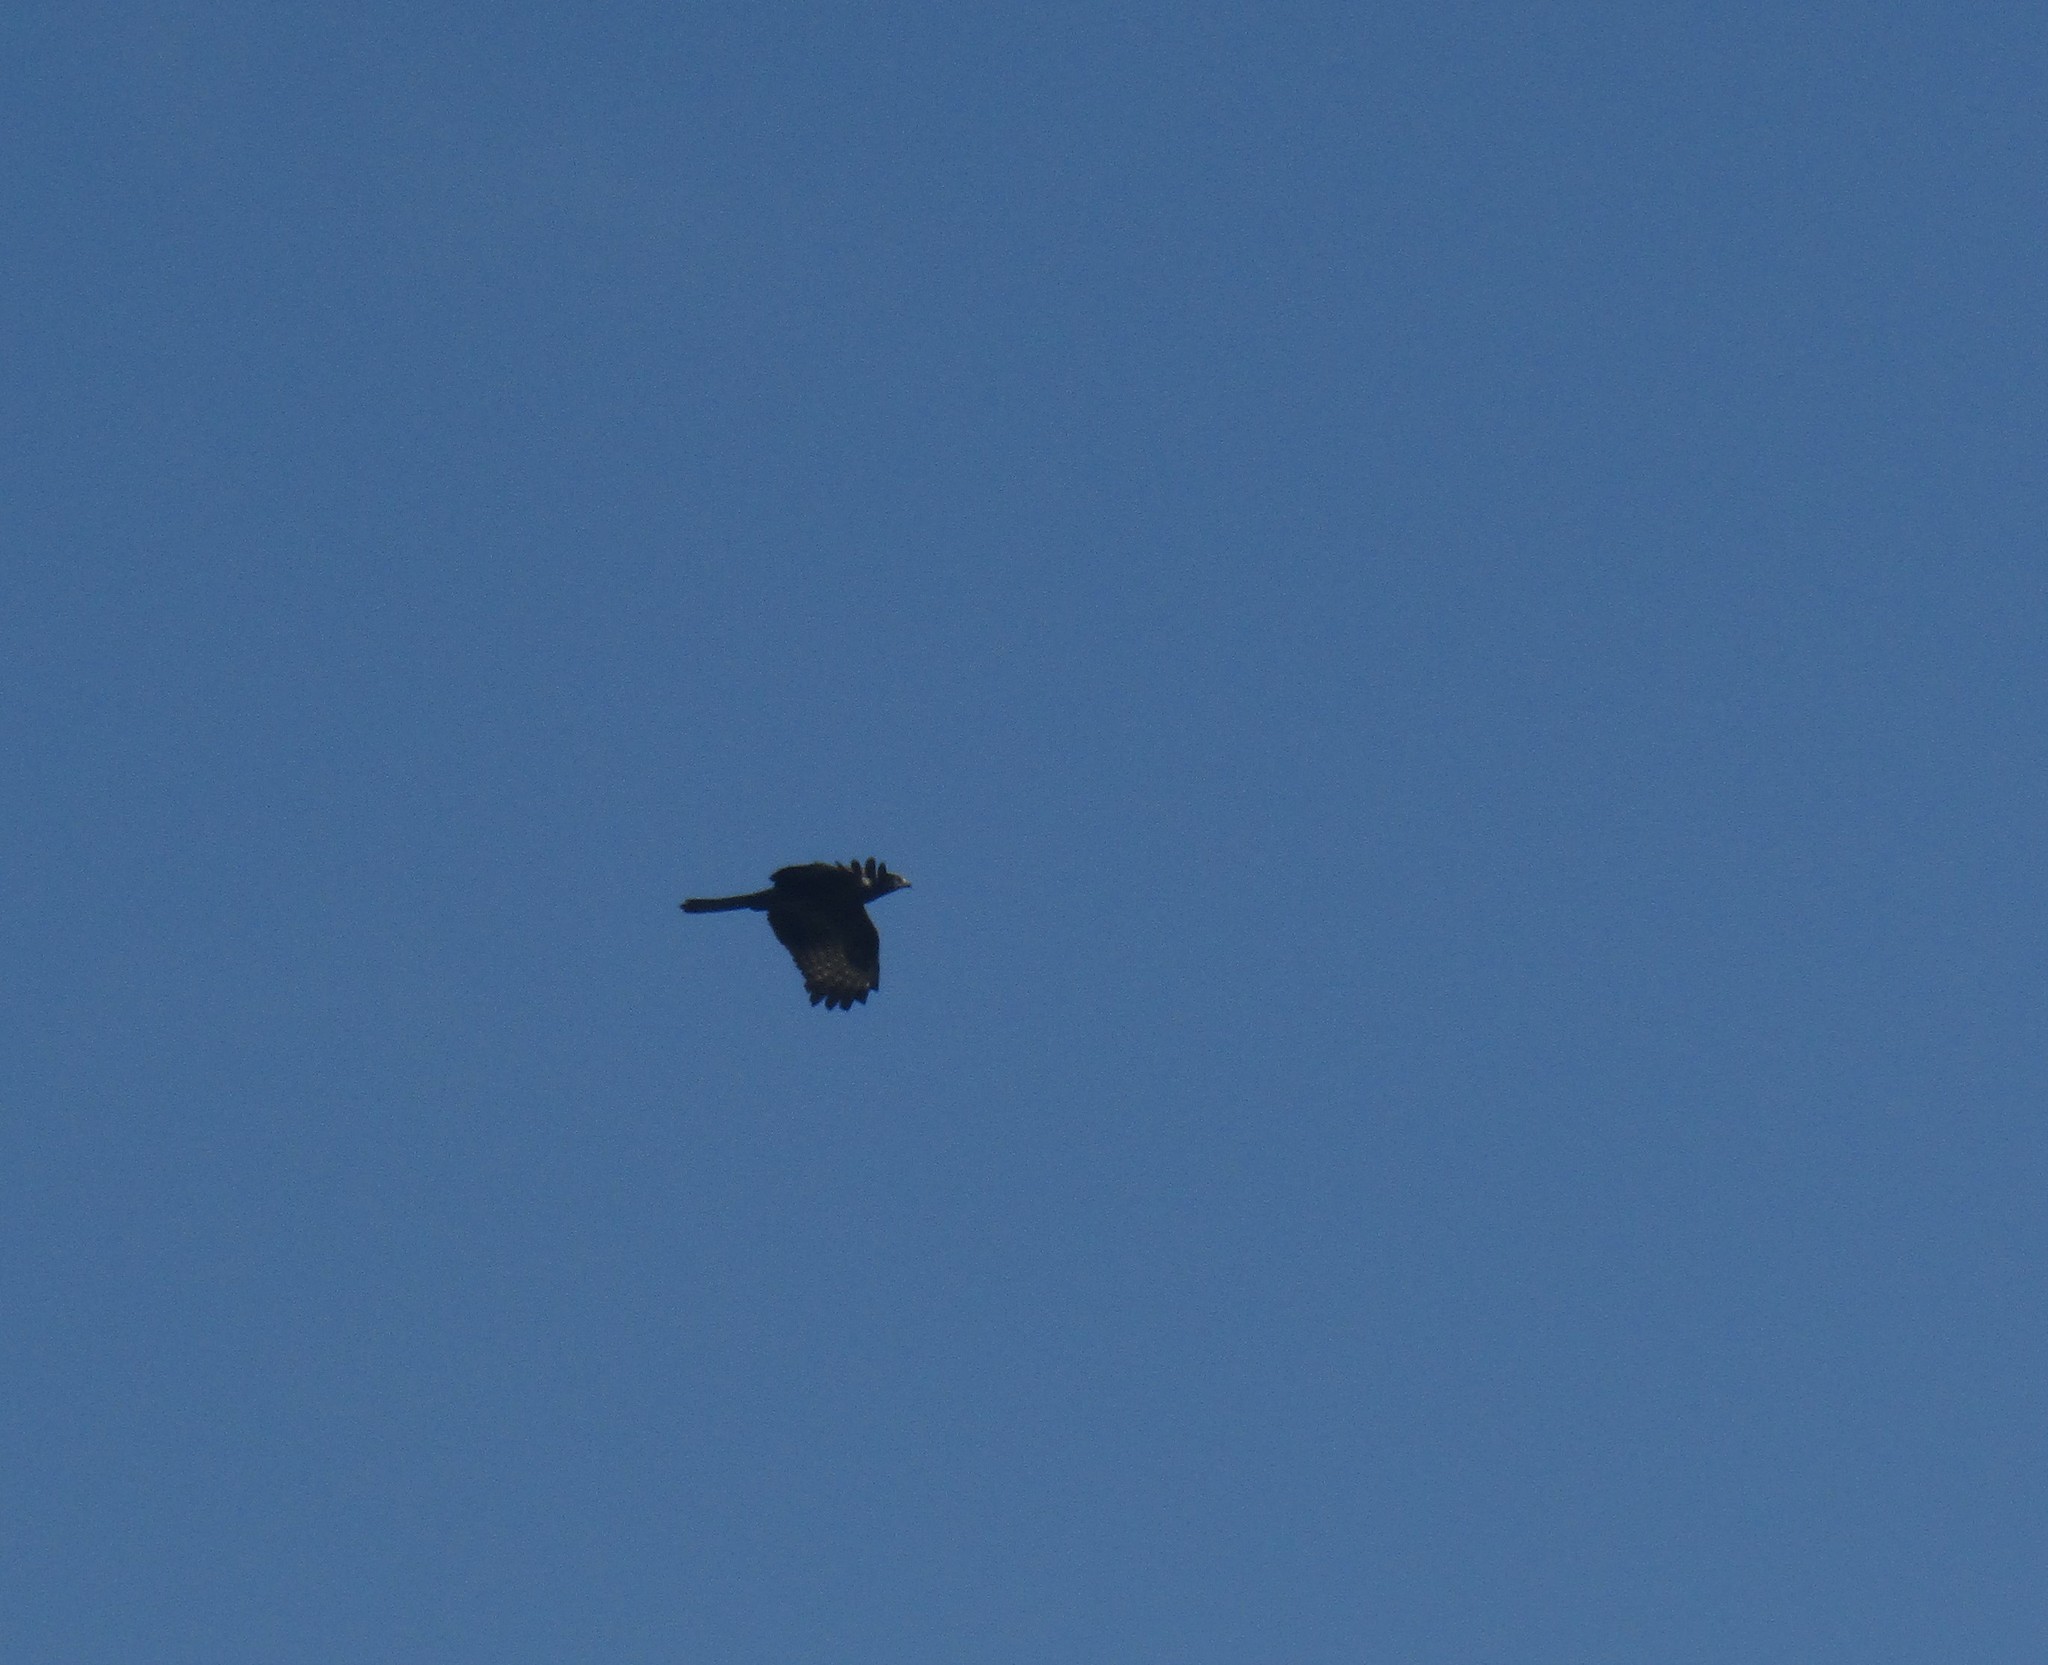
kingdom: Animalia
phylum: Chordata
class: Aves
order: Accipitriformes
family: Accipitridae
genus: Accipiter
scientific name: Accipiter melanoleucus
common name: Black sparrowhawk
